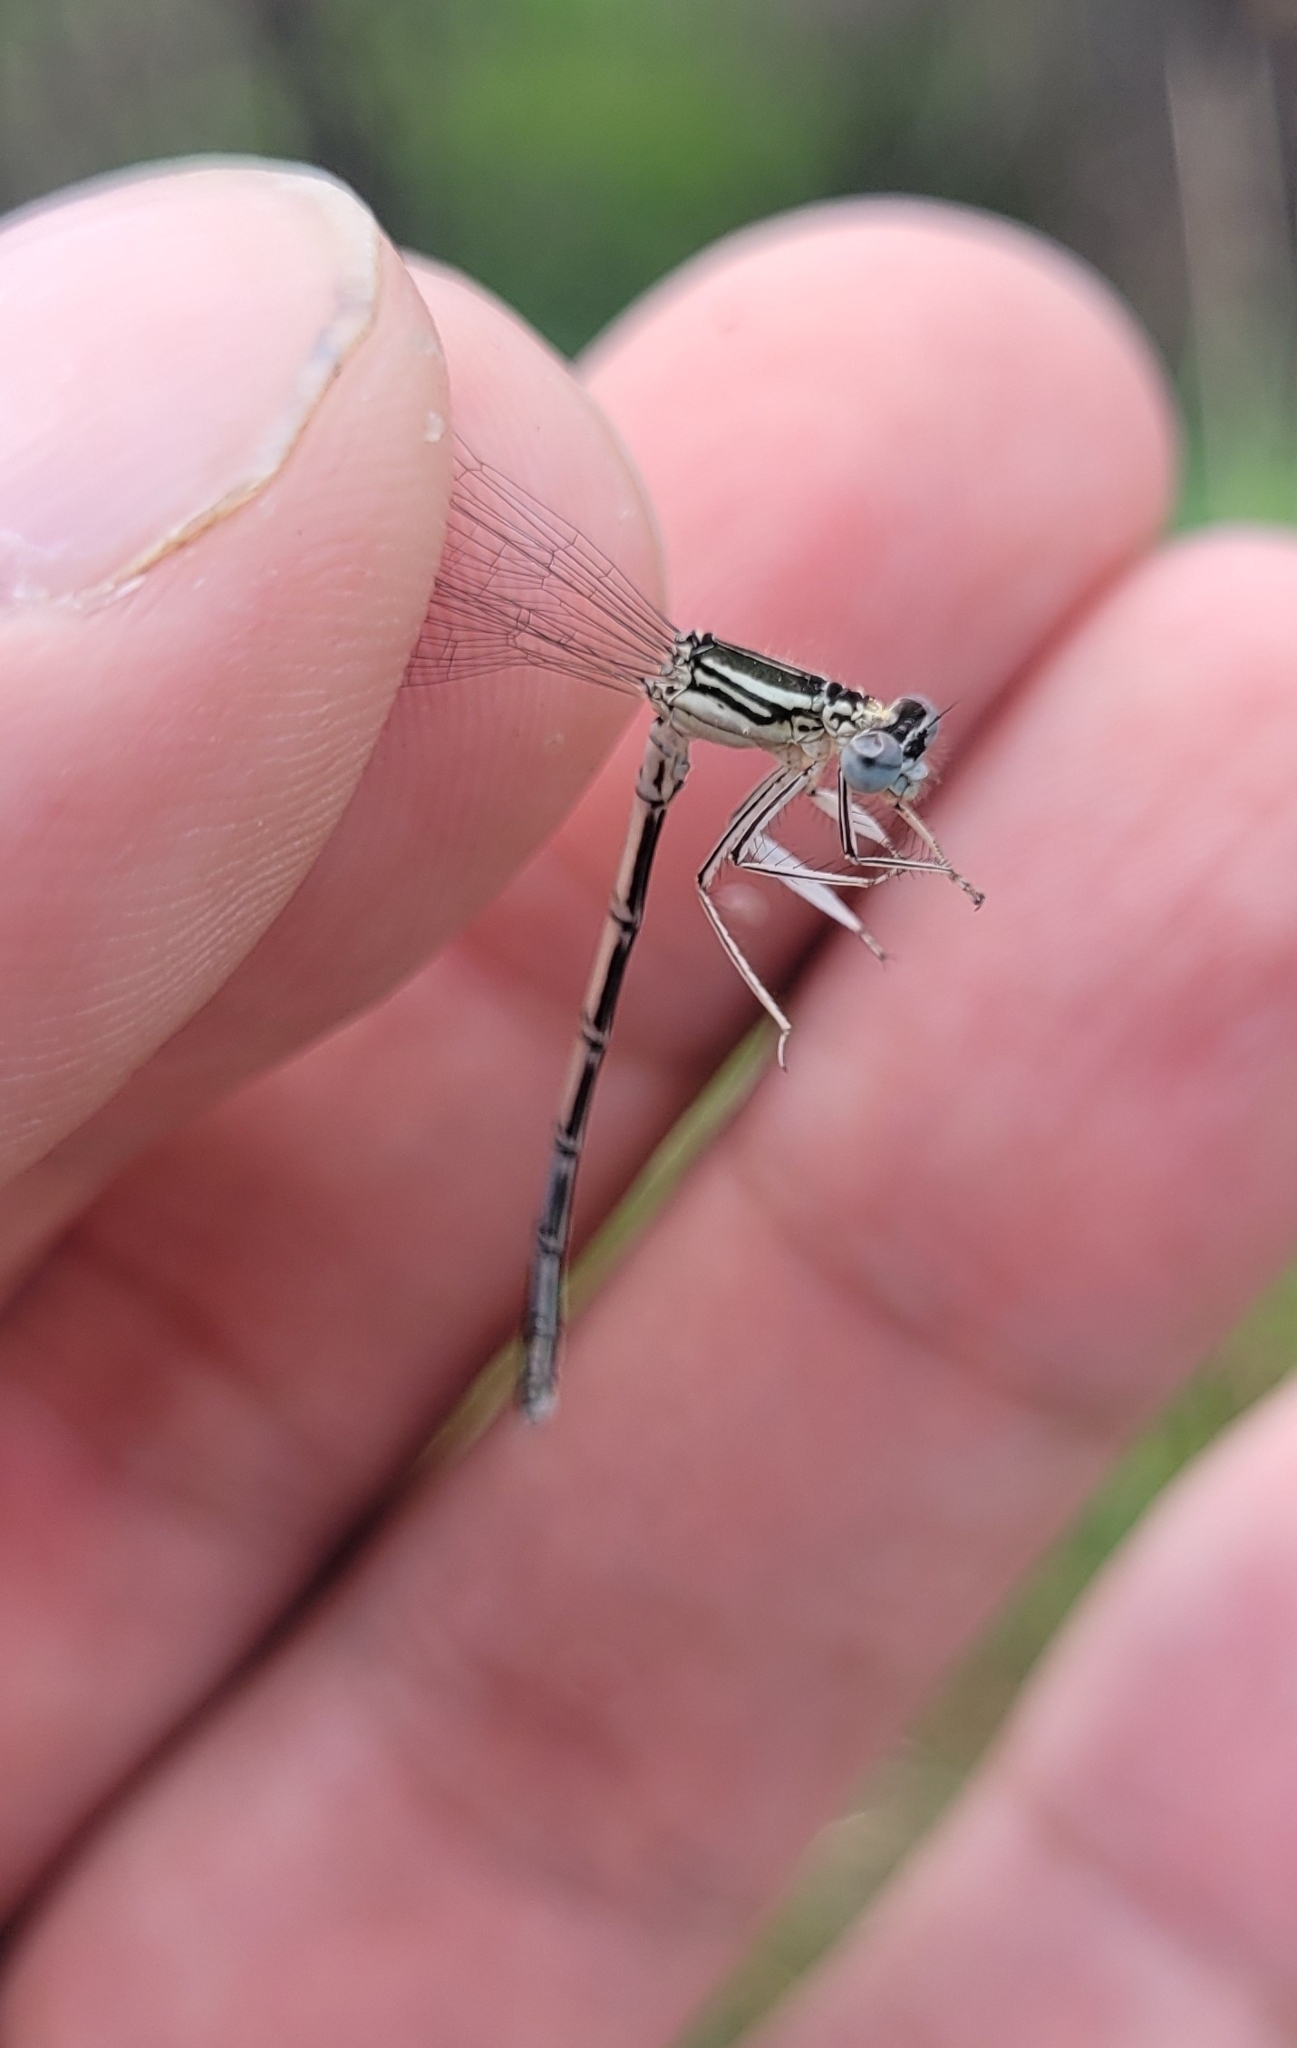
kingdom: Animalia
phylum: Arthropoda
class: Insecta
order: Odonata
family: Platycnemididae
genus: Platycnemis
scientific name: Platycnemis pennipes
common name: White-legged damselfly
